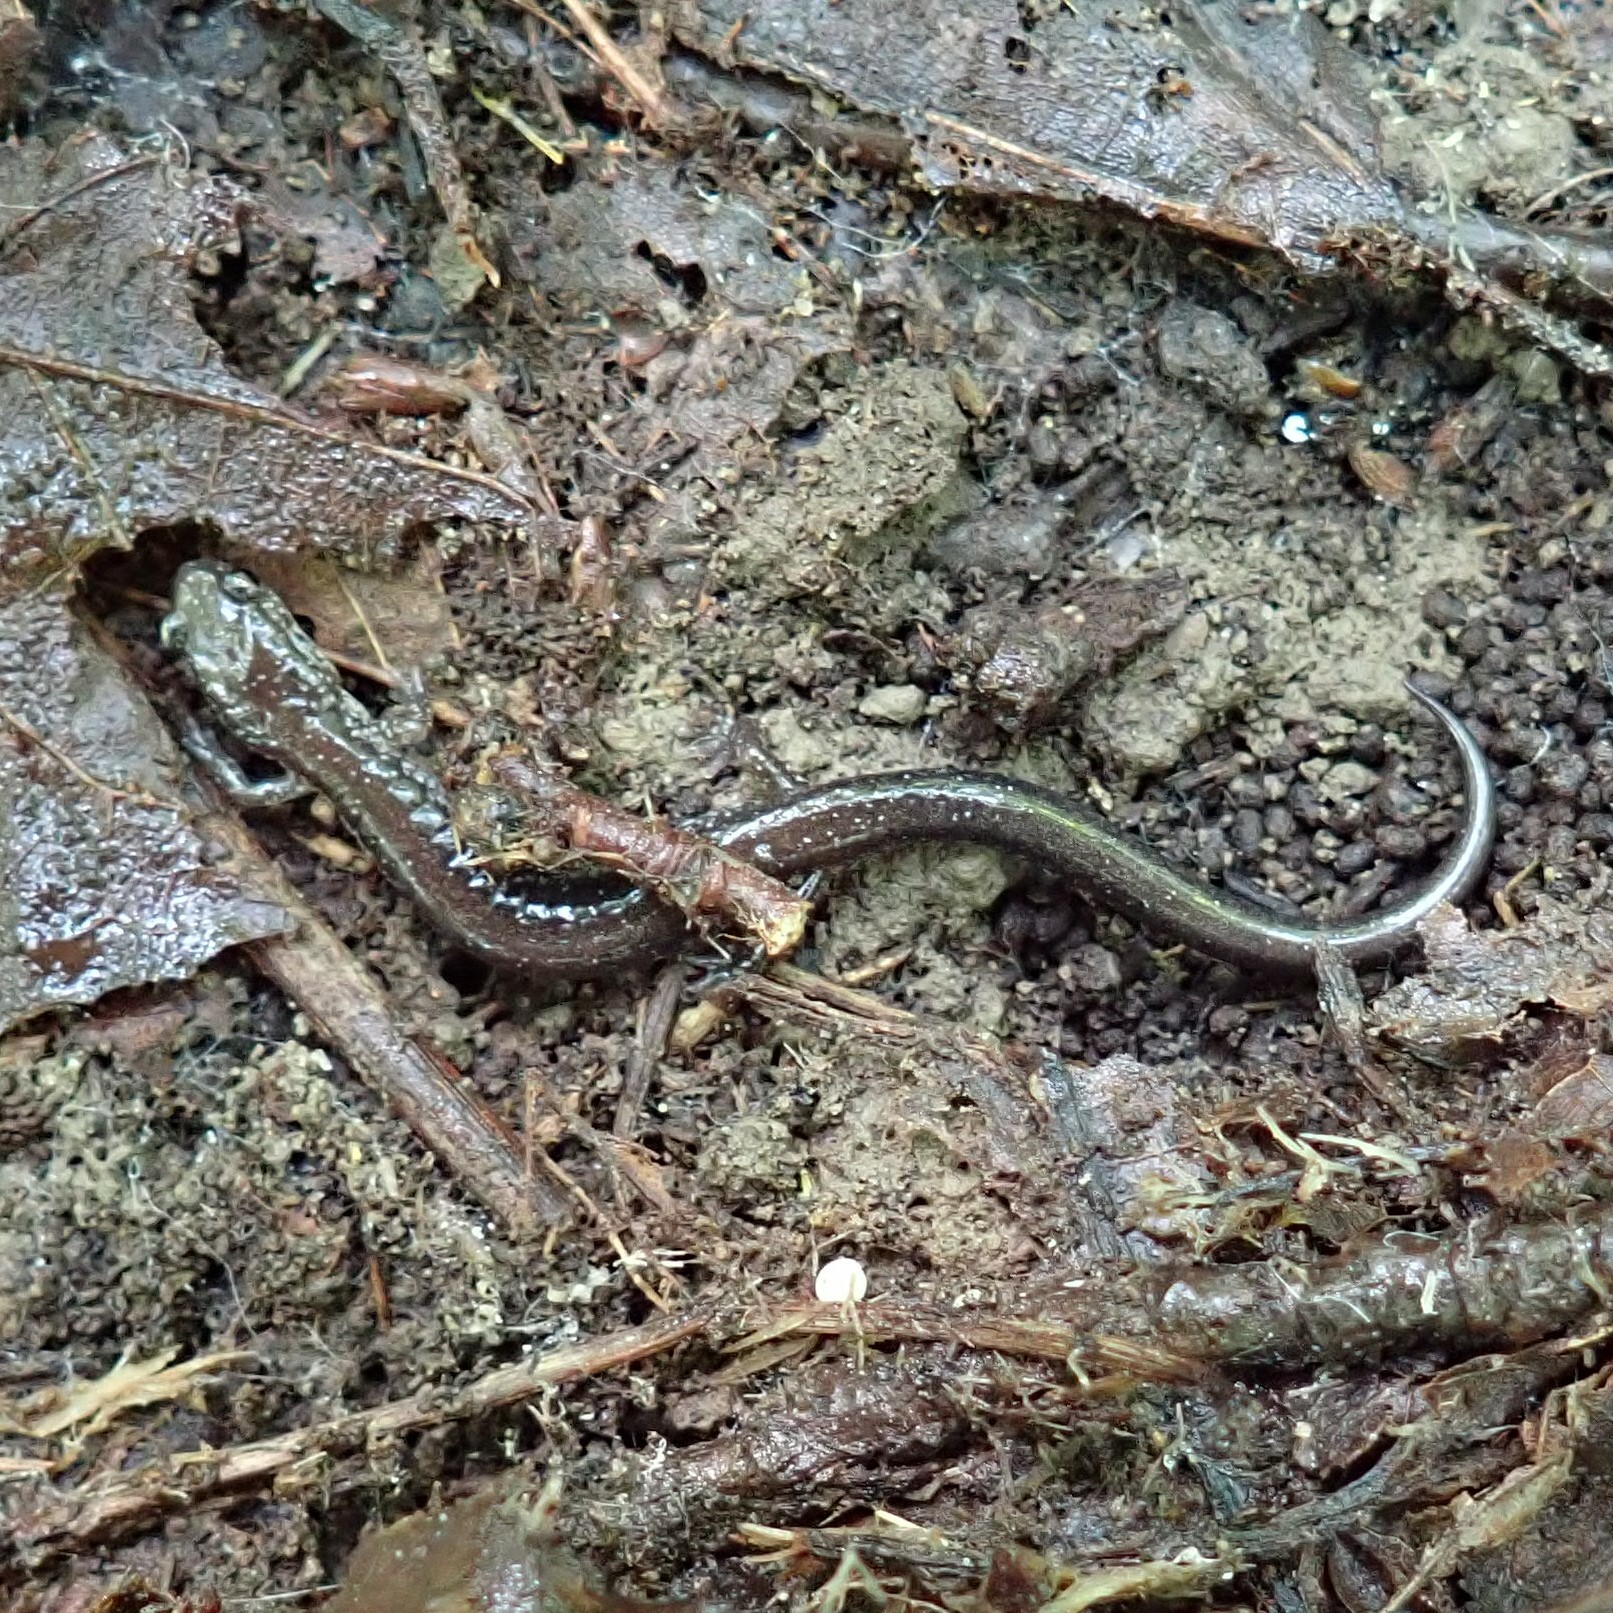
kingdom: Animalia
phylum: Chordata
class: Amphibia
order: Caudata
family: Plethodontidae
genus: Plethodon
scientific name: Plethodon cinereus
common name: Redback salamander
